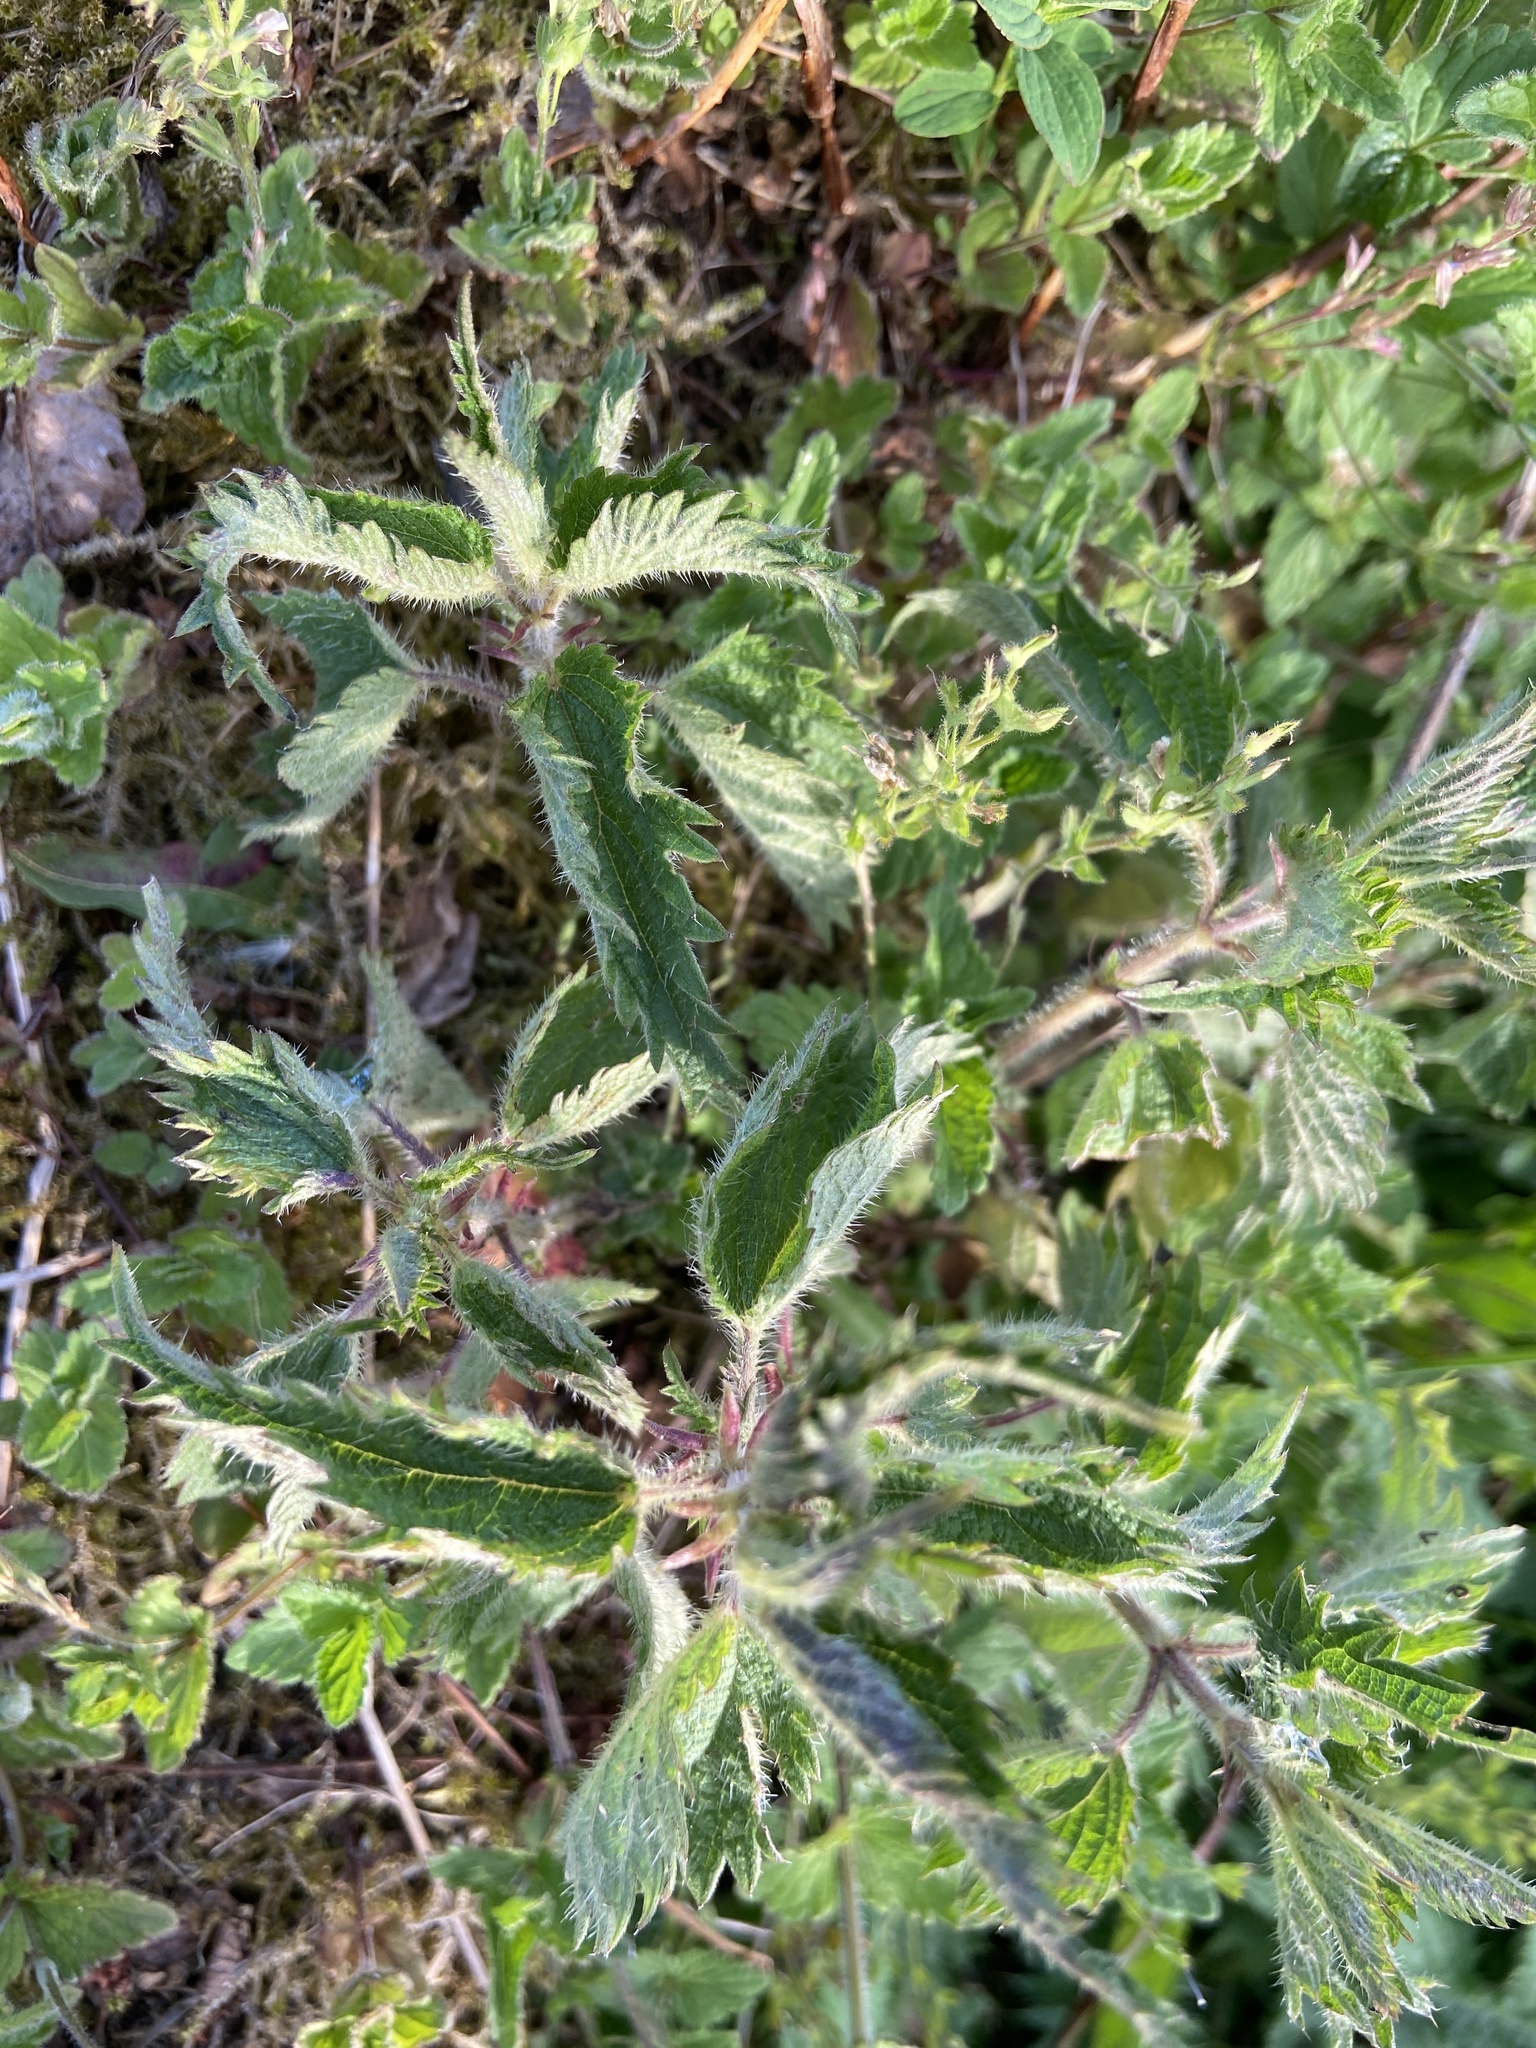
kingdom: Plantae
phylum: Tracheophyta
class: Magnoliopsida
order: Rosales
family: Urticaceae
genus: Urtica
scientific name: Urtica dioica
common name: Common nettle
